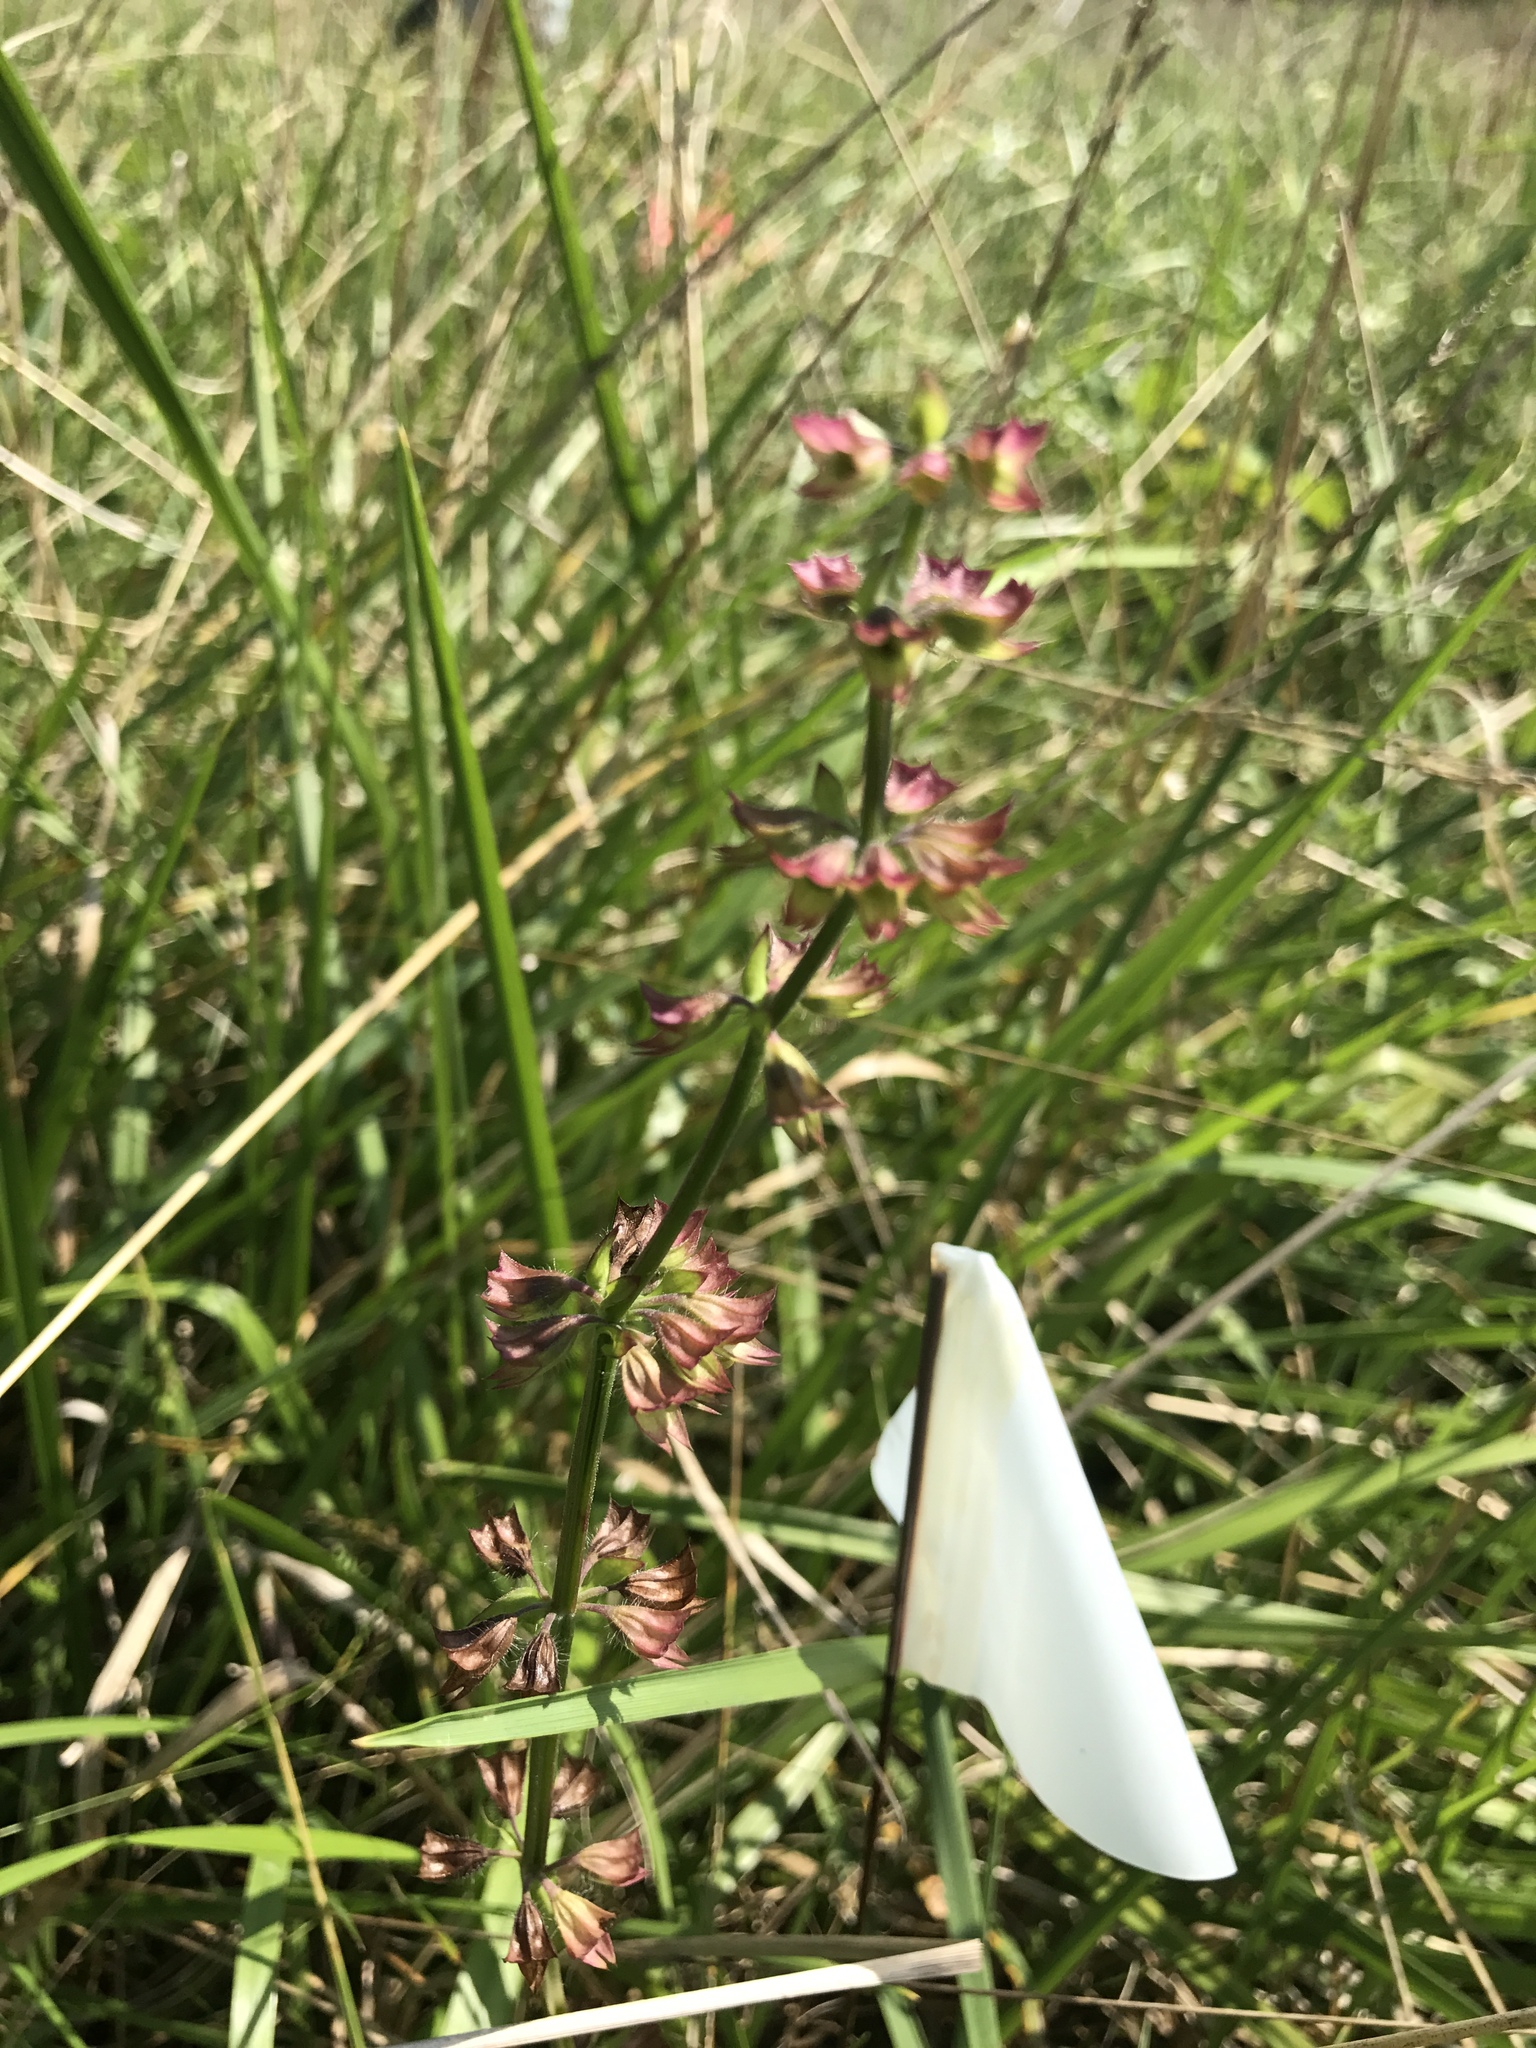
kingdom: Plantae
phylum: Tracheophyta
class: Magnoliopsida
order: Lamiales
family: Lamiaceae
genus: Salvia
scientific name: Salvia lyrata
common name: Cancerweed
